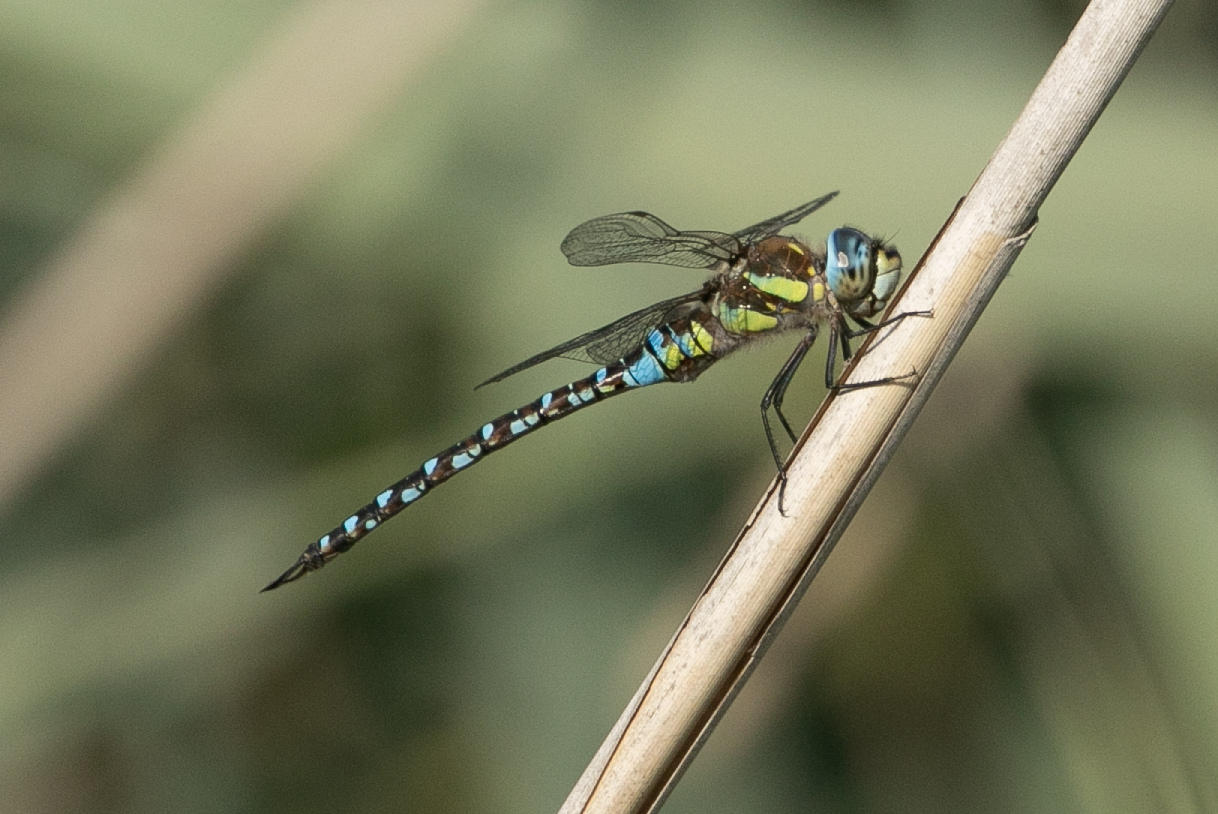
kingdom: Animalia
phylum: Arthropoda
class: Insecta
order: Odonata
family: Aeshnidae
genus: Aeshna
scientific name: Aeshna mixta
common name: Migrant hawker
